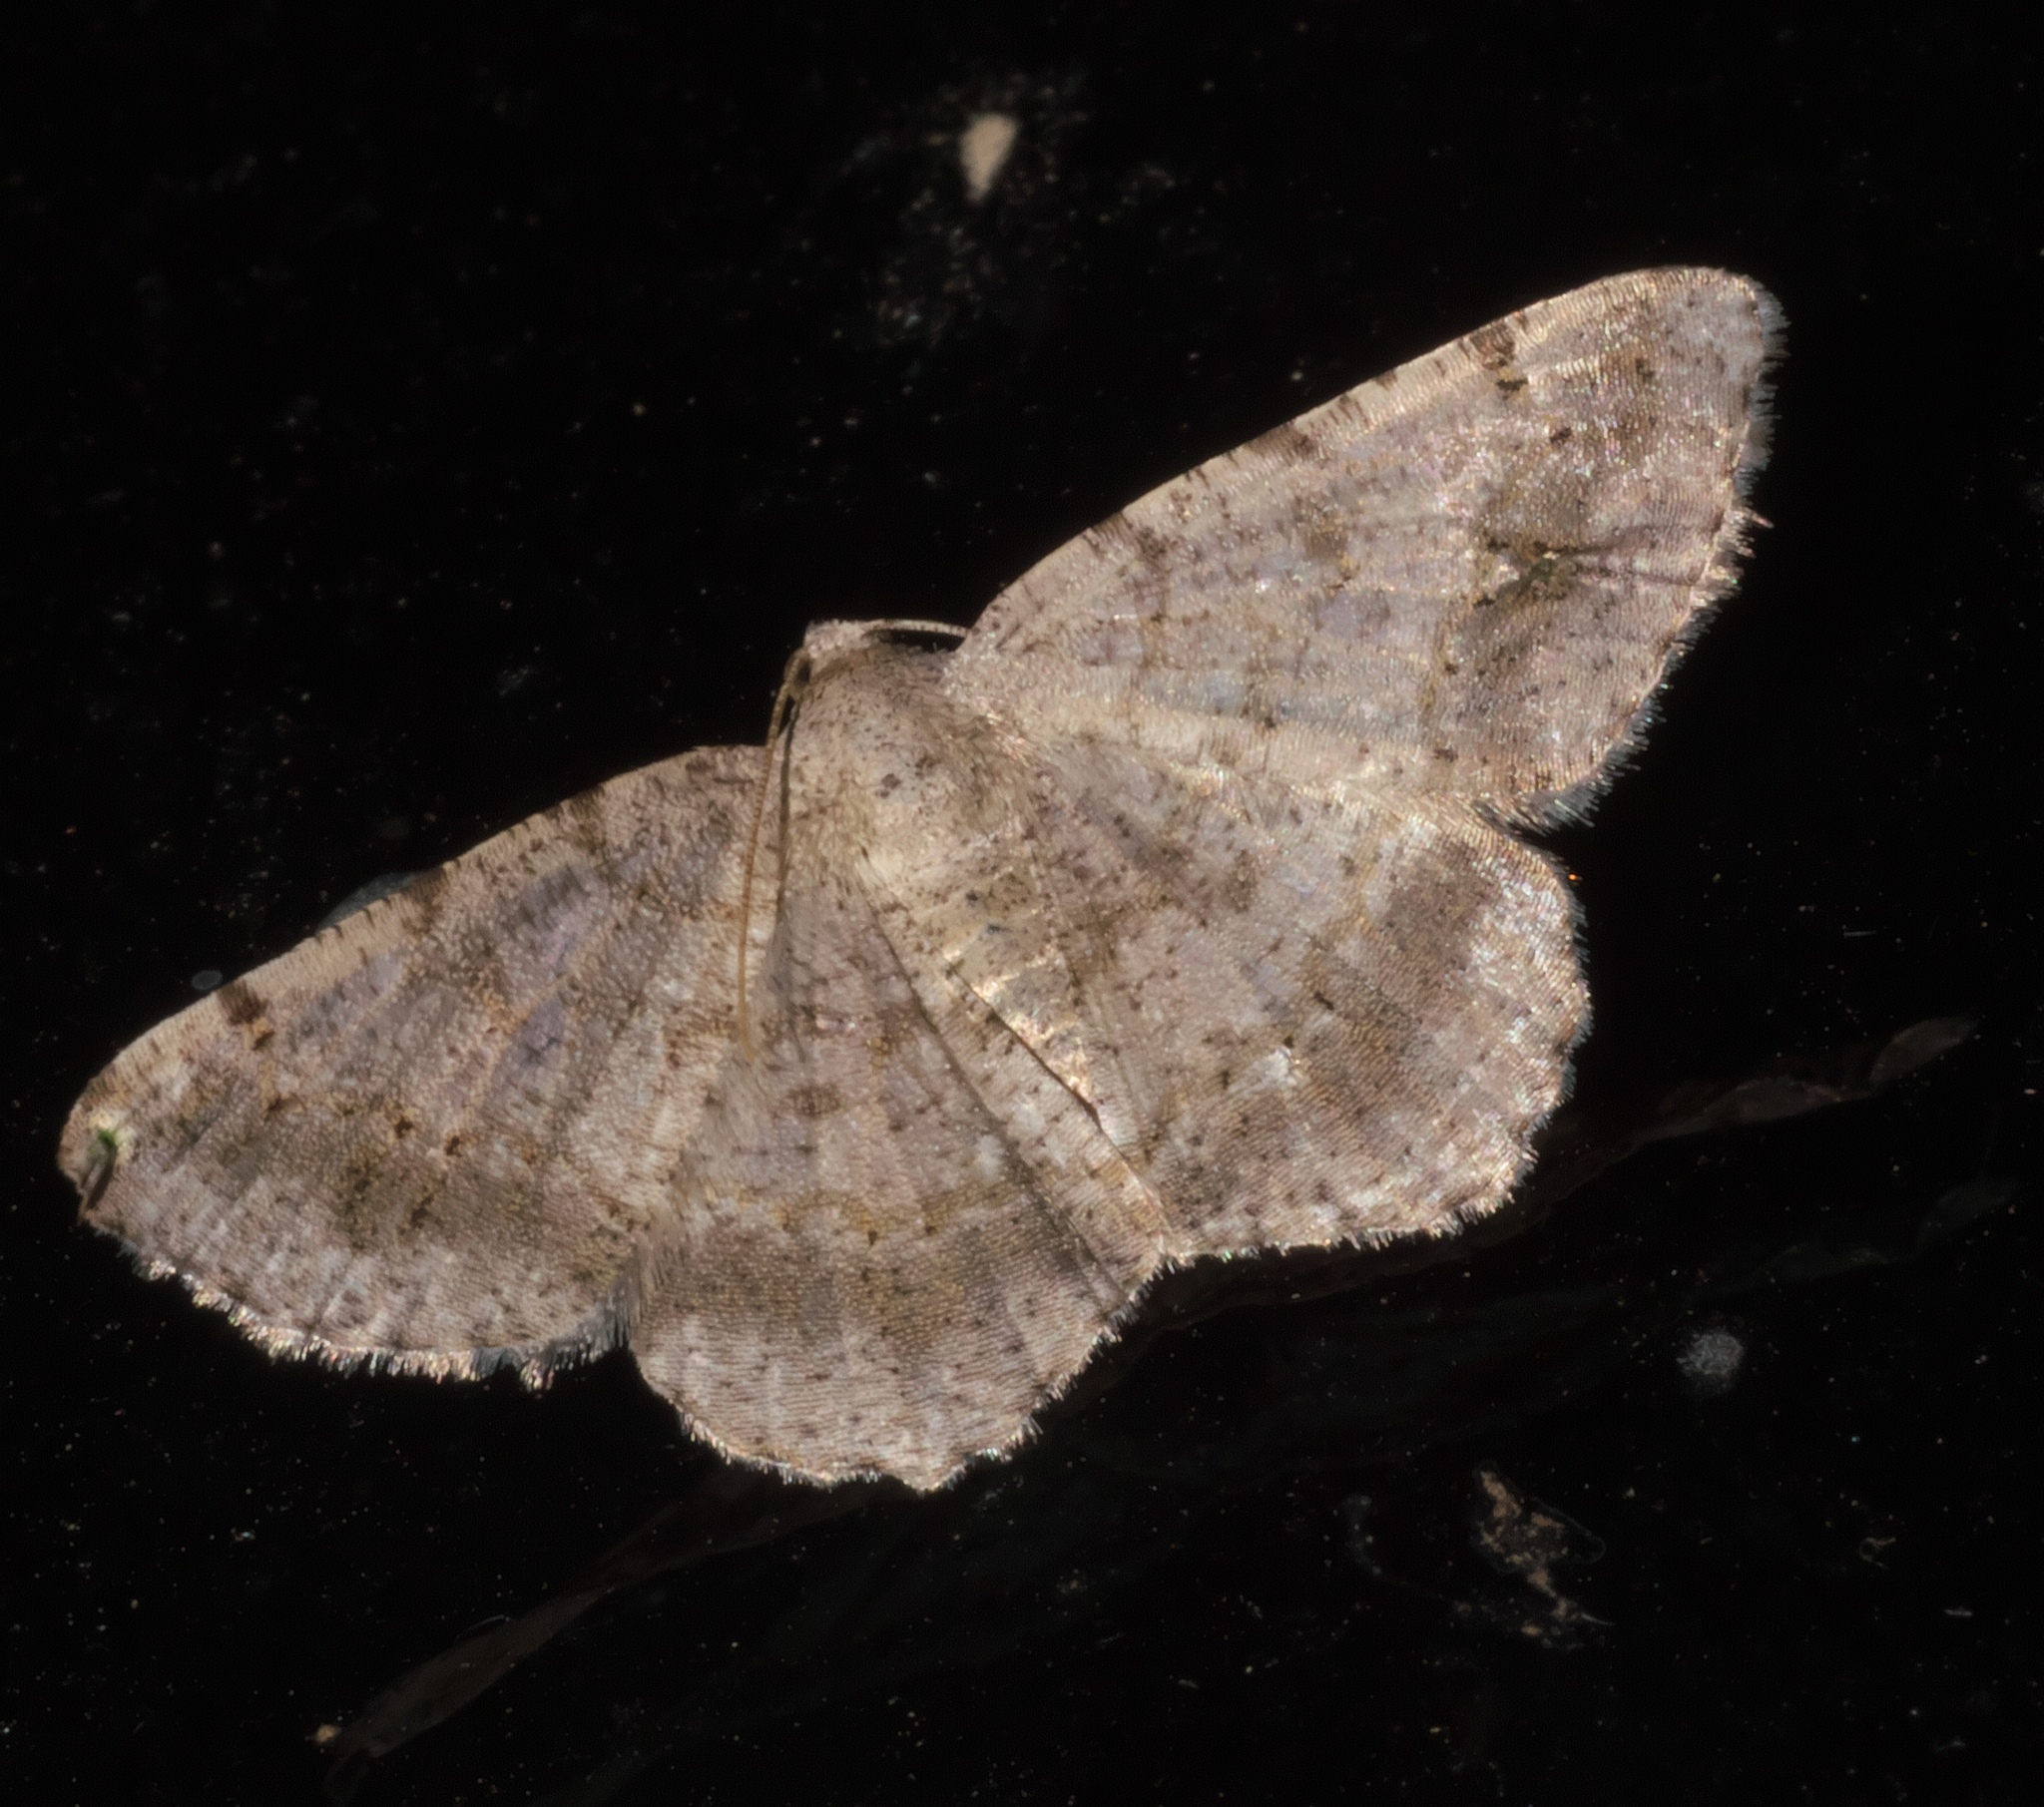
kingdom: Animalia
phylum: Arthropoda
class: Insecta
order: Lepidoptera
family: Geometridae
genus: Digrammia
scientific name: Digrammia ocellinata
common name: Faint-spotted angle
